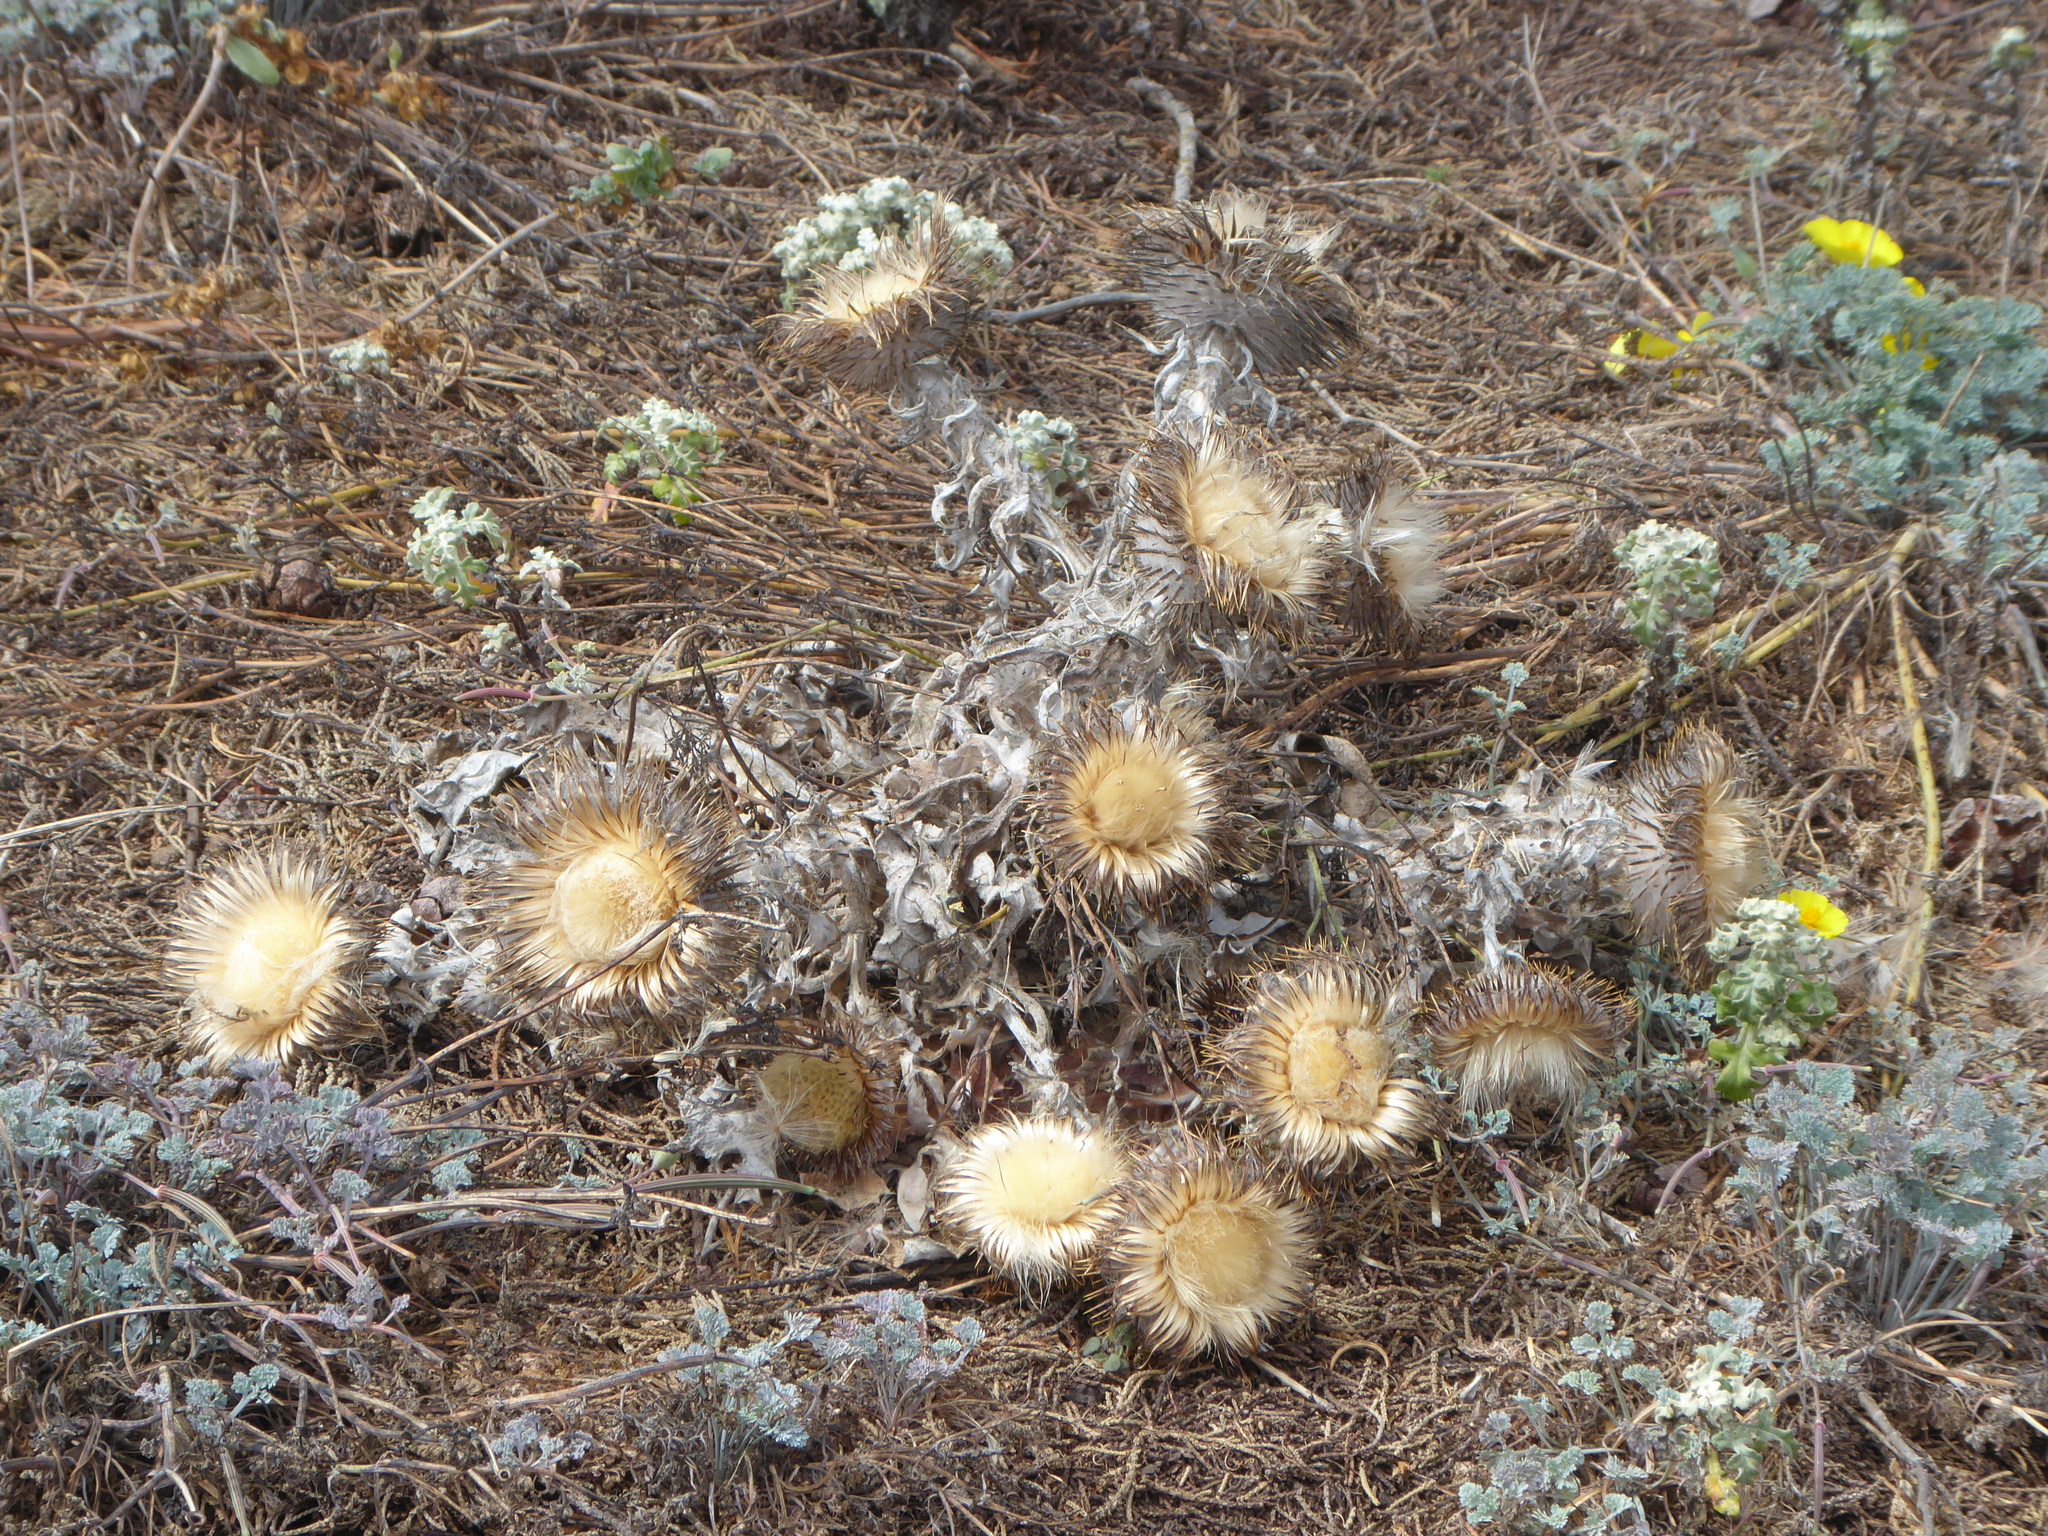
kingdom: Plantae
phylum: Tracheophyta
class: Magnoliopsida
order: Asterales
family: Asteraceae
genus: Cirsium
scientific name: Cirsium occidentale
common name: Western thistle
